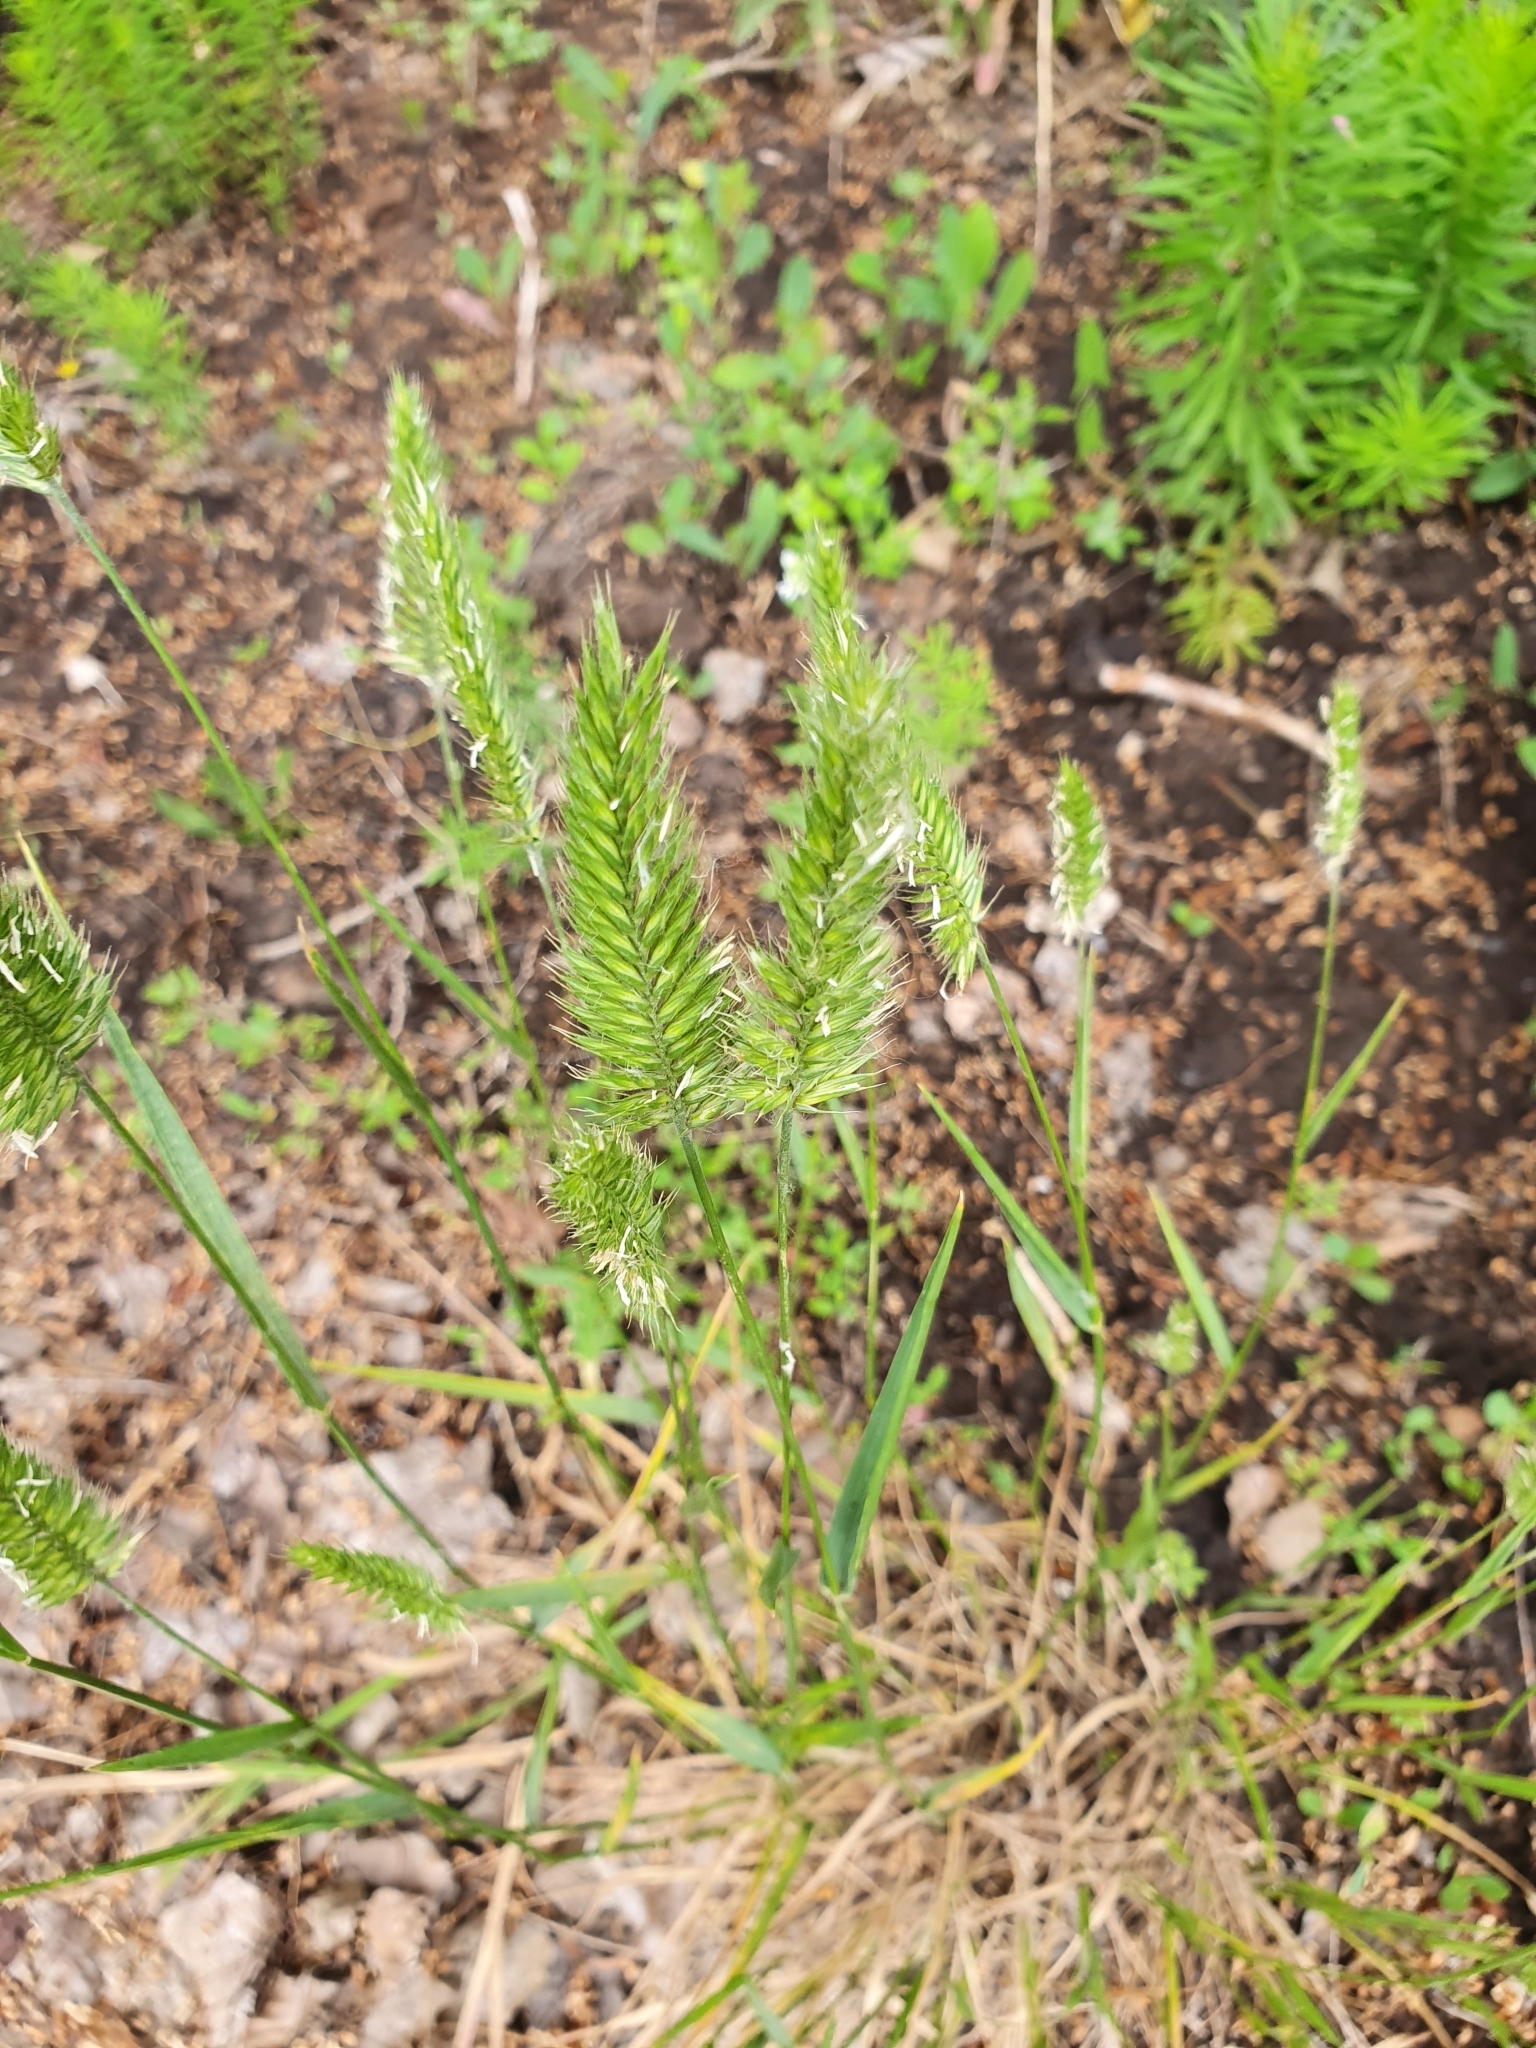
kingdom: Plantae
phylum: Tracheophyta
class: Liliopsida
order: Poales
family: Poaceae
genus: Agropyron
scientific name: Agropyron cristatum
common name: Crested wheatgrass
